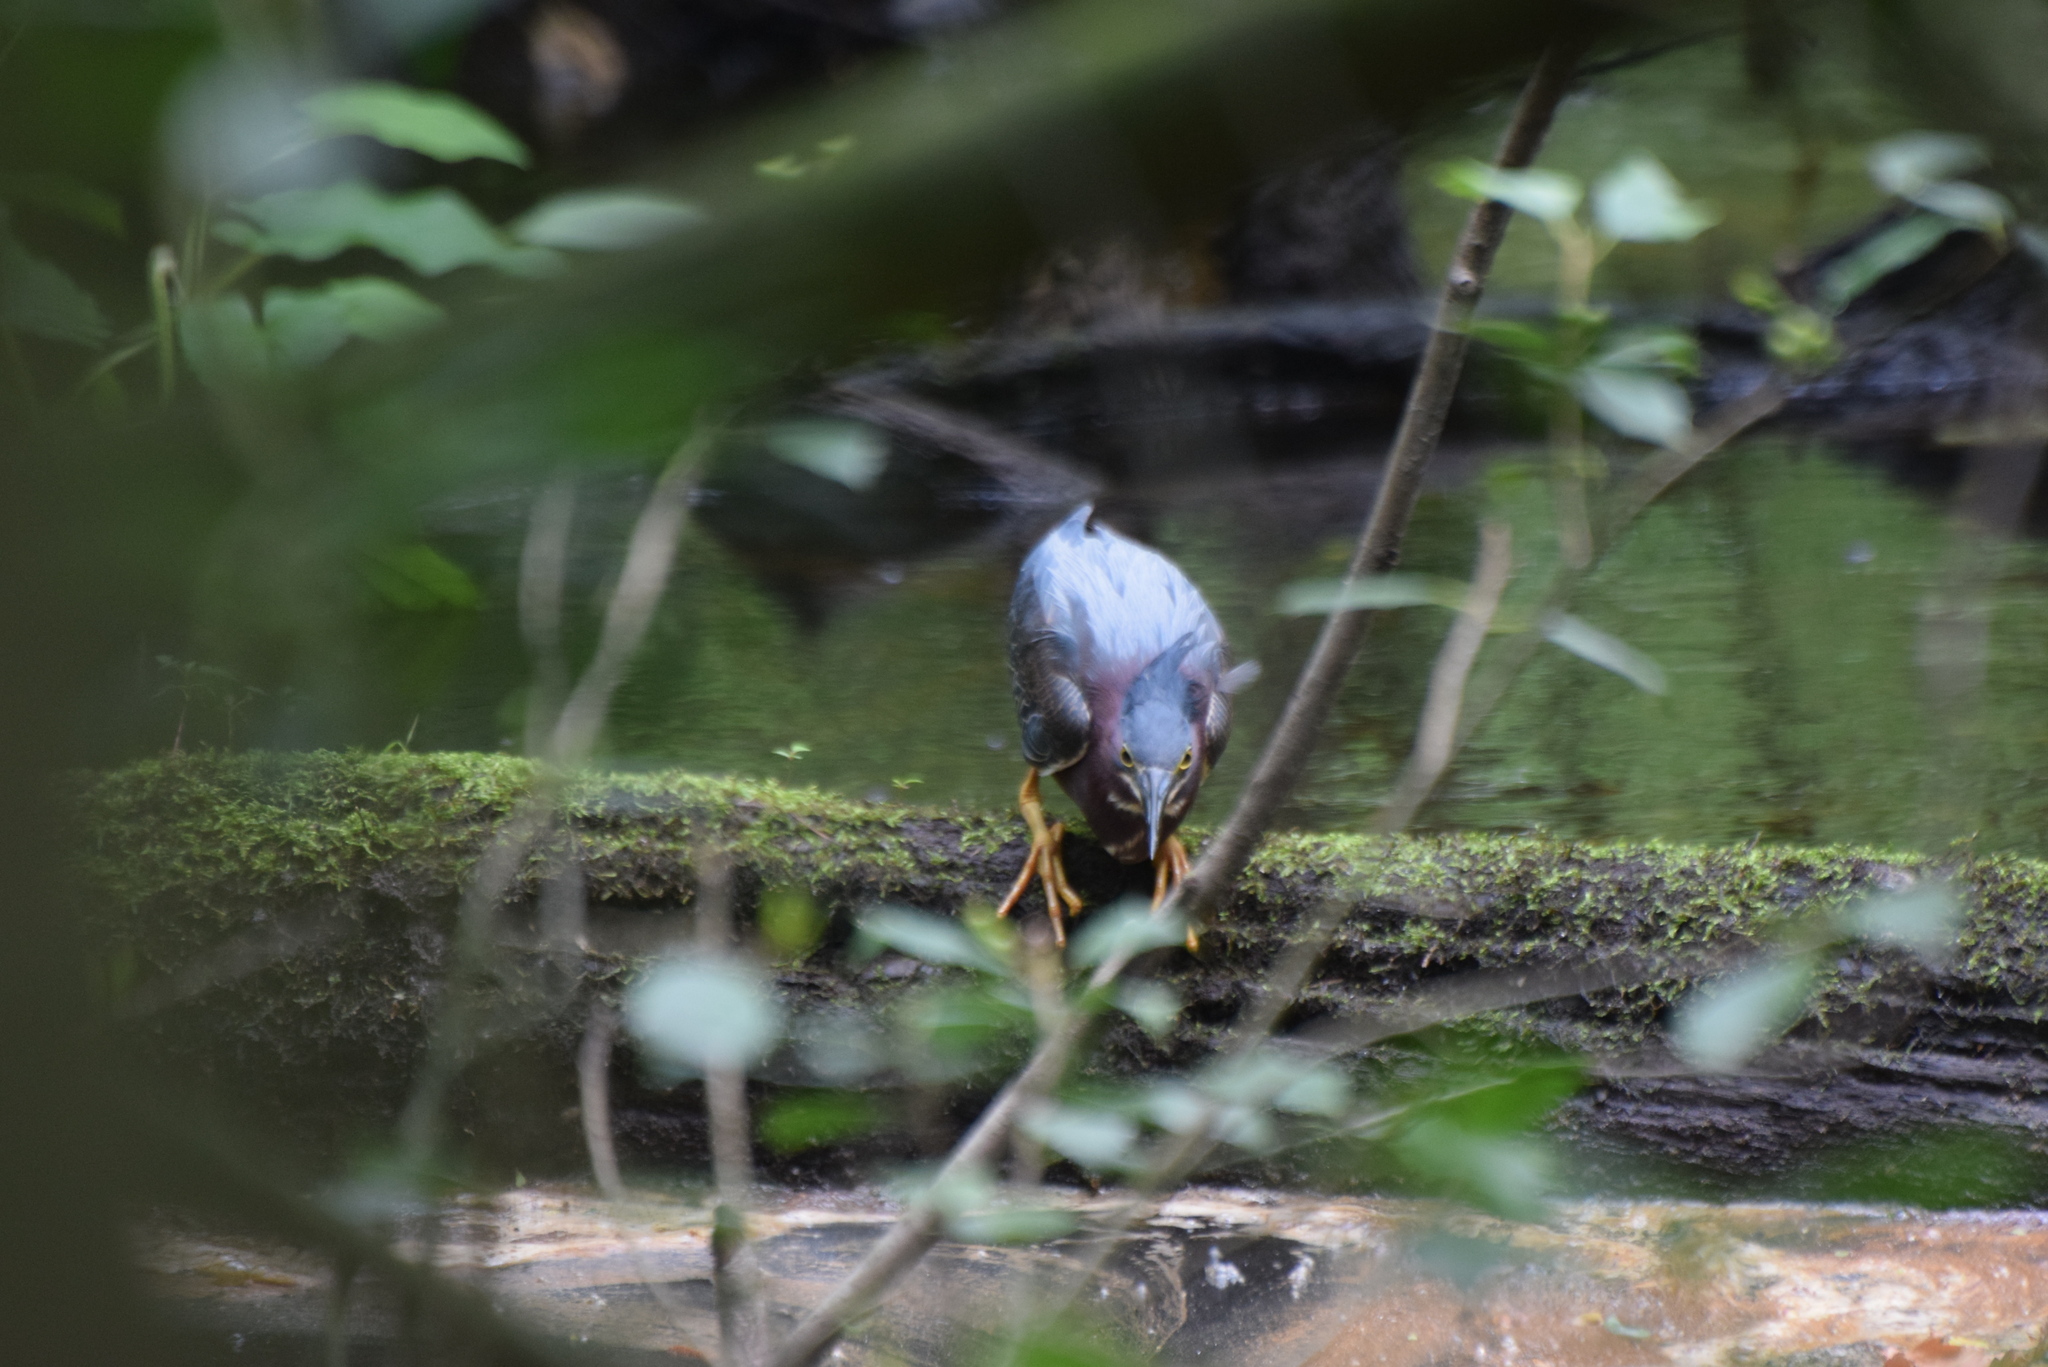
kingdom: Animalia
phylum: Chordata
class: Aves
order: Pelecaniformes
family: Ardeidae
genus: Butorides
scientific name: Butorides virescens
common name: Green heron
